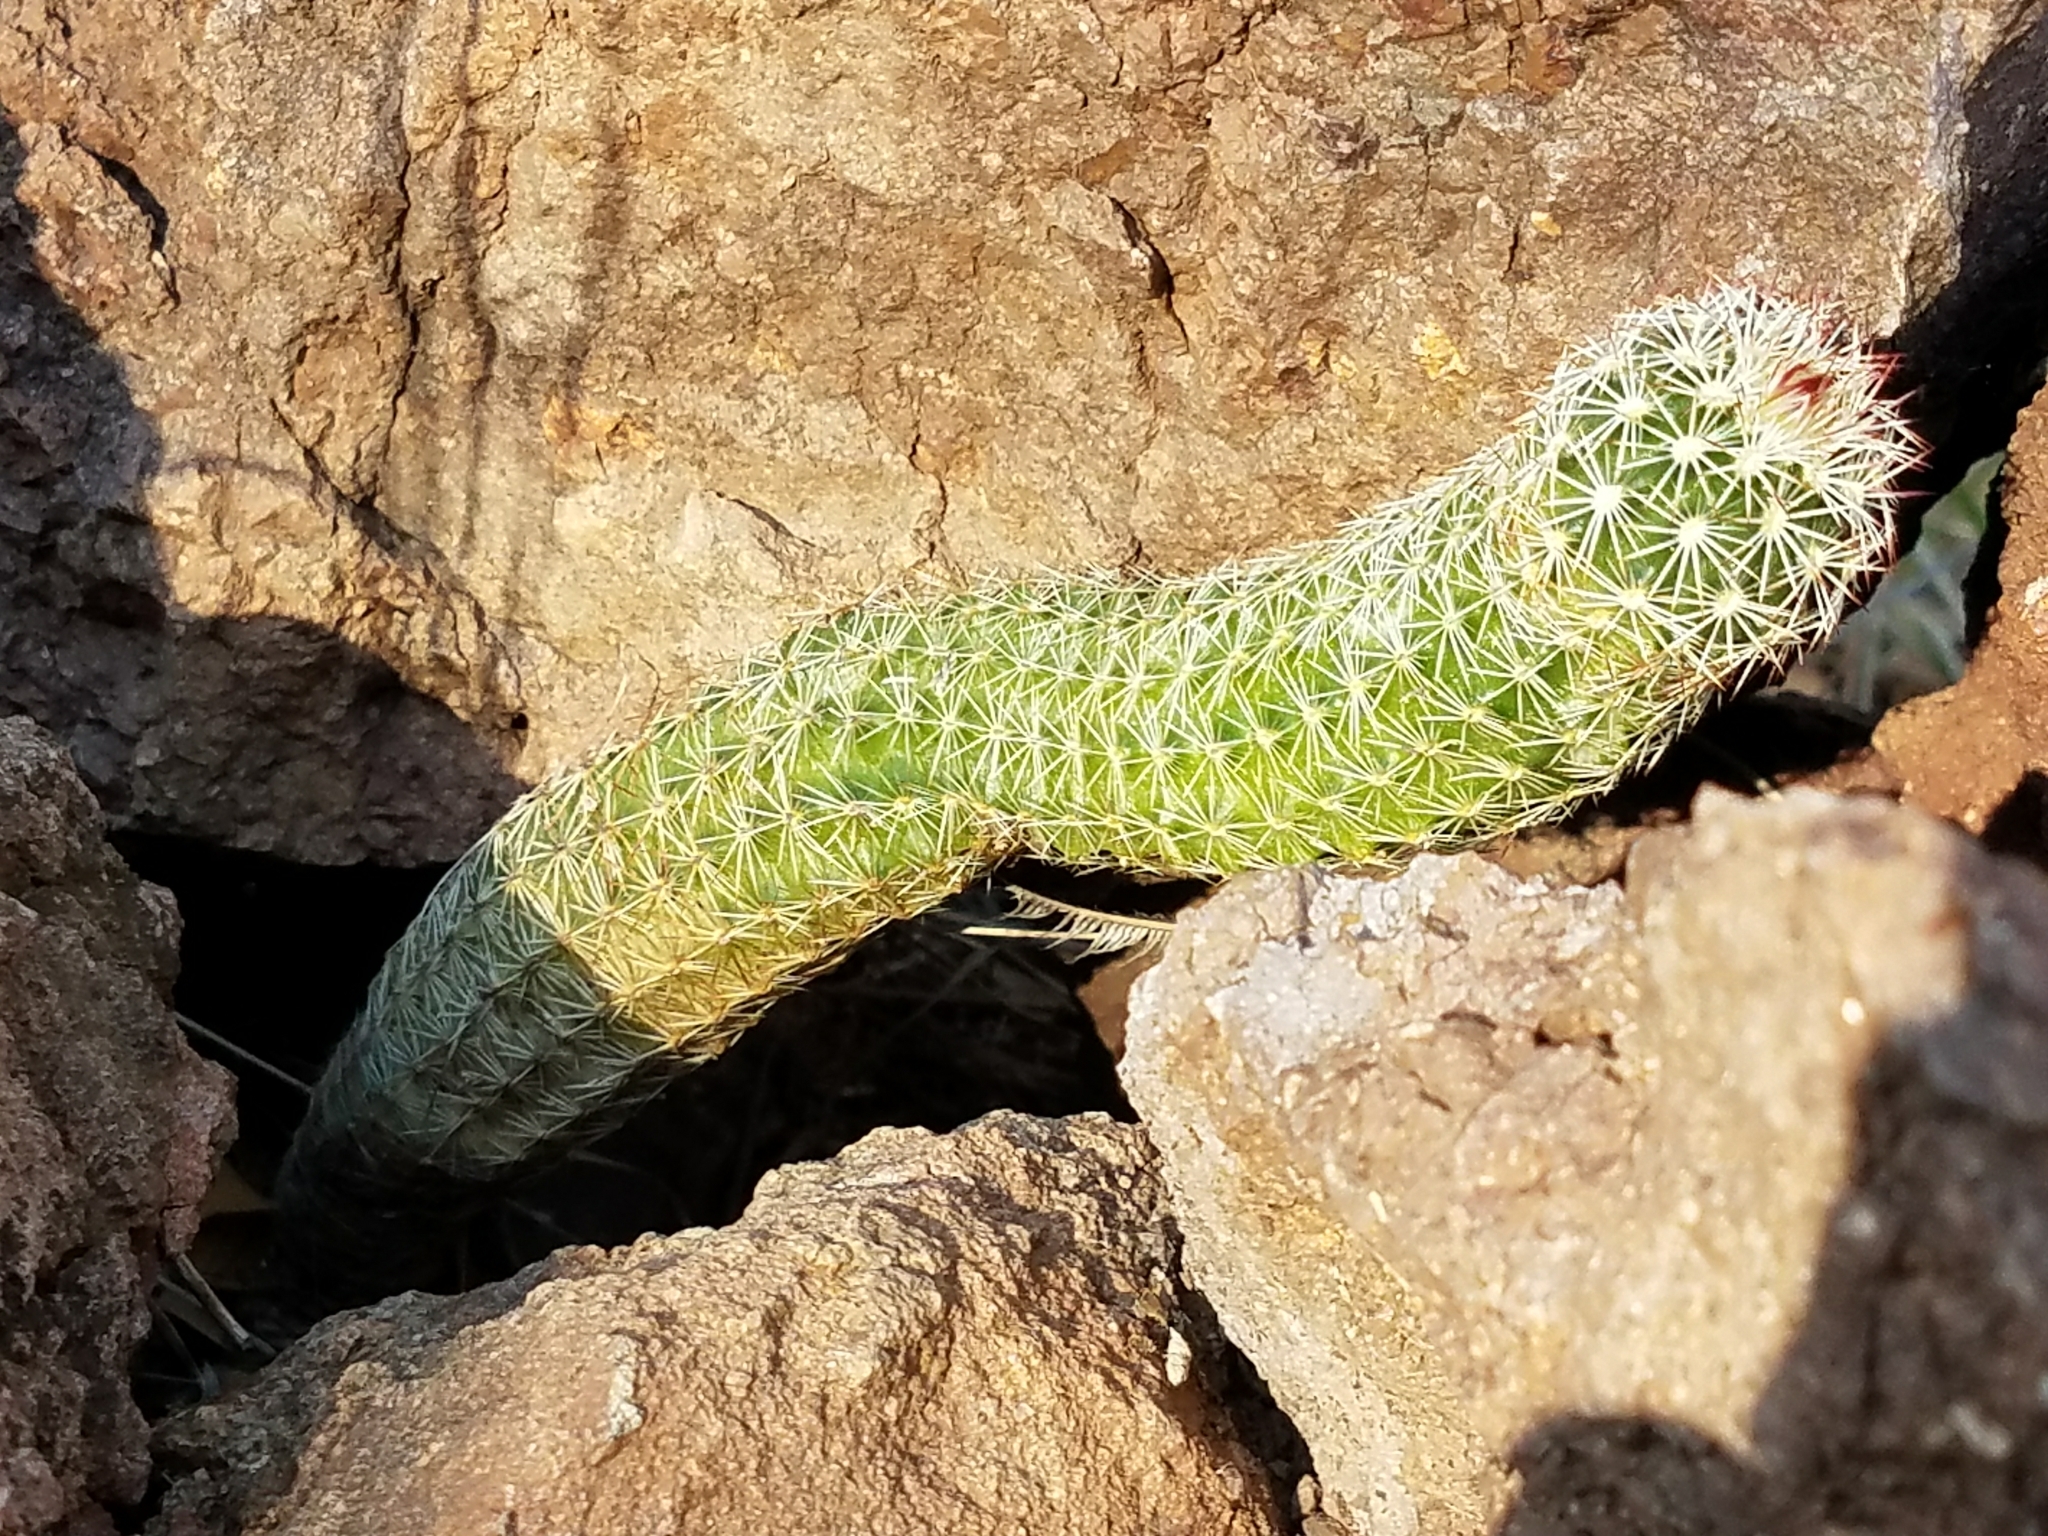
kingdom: Plantae
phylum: Tracheophyta
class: Magnoliopsida
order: Caryophyllales
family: Cactaceae
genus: Echinocereus
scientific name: Echinocereus viridiflorus
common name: Nylon hedgehog cactus
